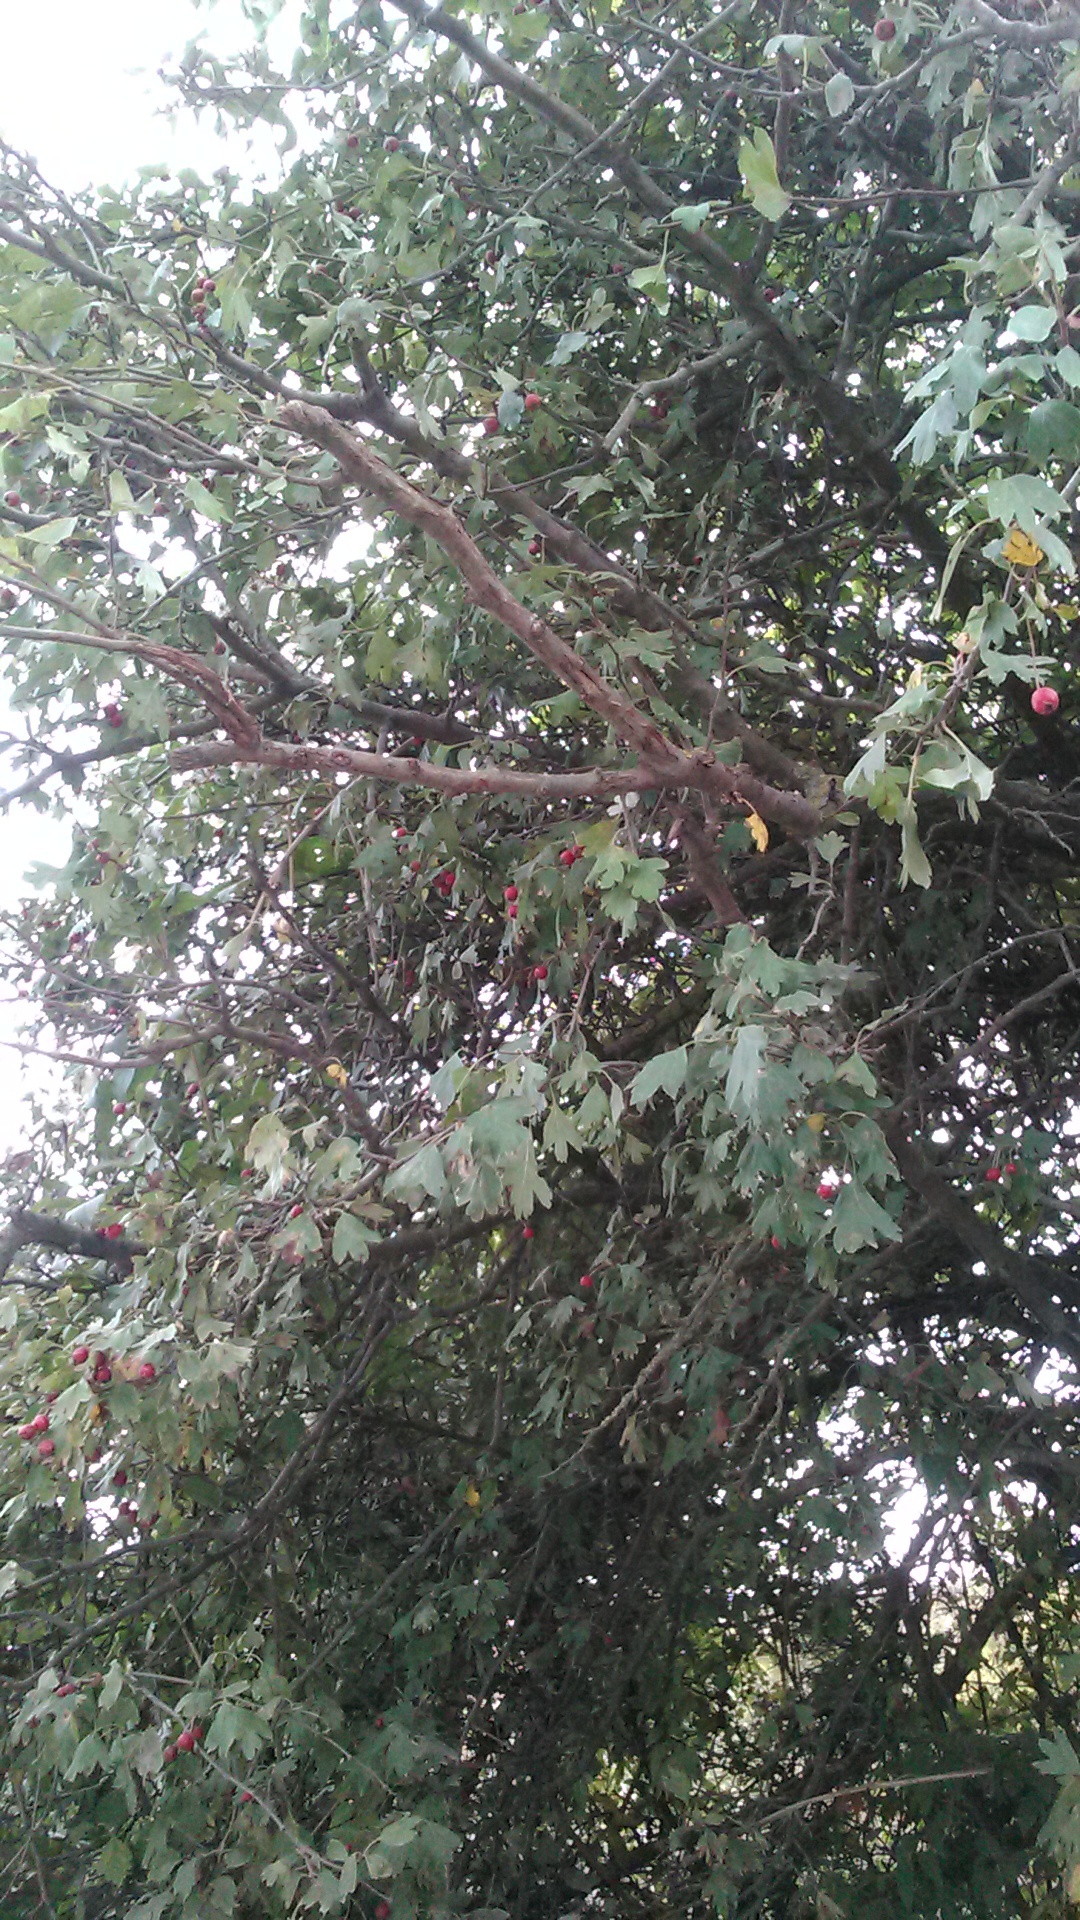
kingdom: Plantae
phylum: Tracheophyta
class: Magnoliopsida
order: Rosales
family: Rosaceae
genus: Crataegus
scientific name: Crataegus monogyna
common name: Hawthorn
